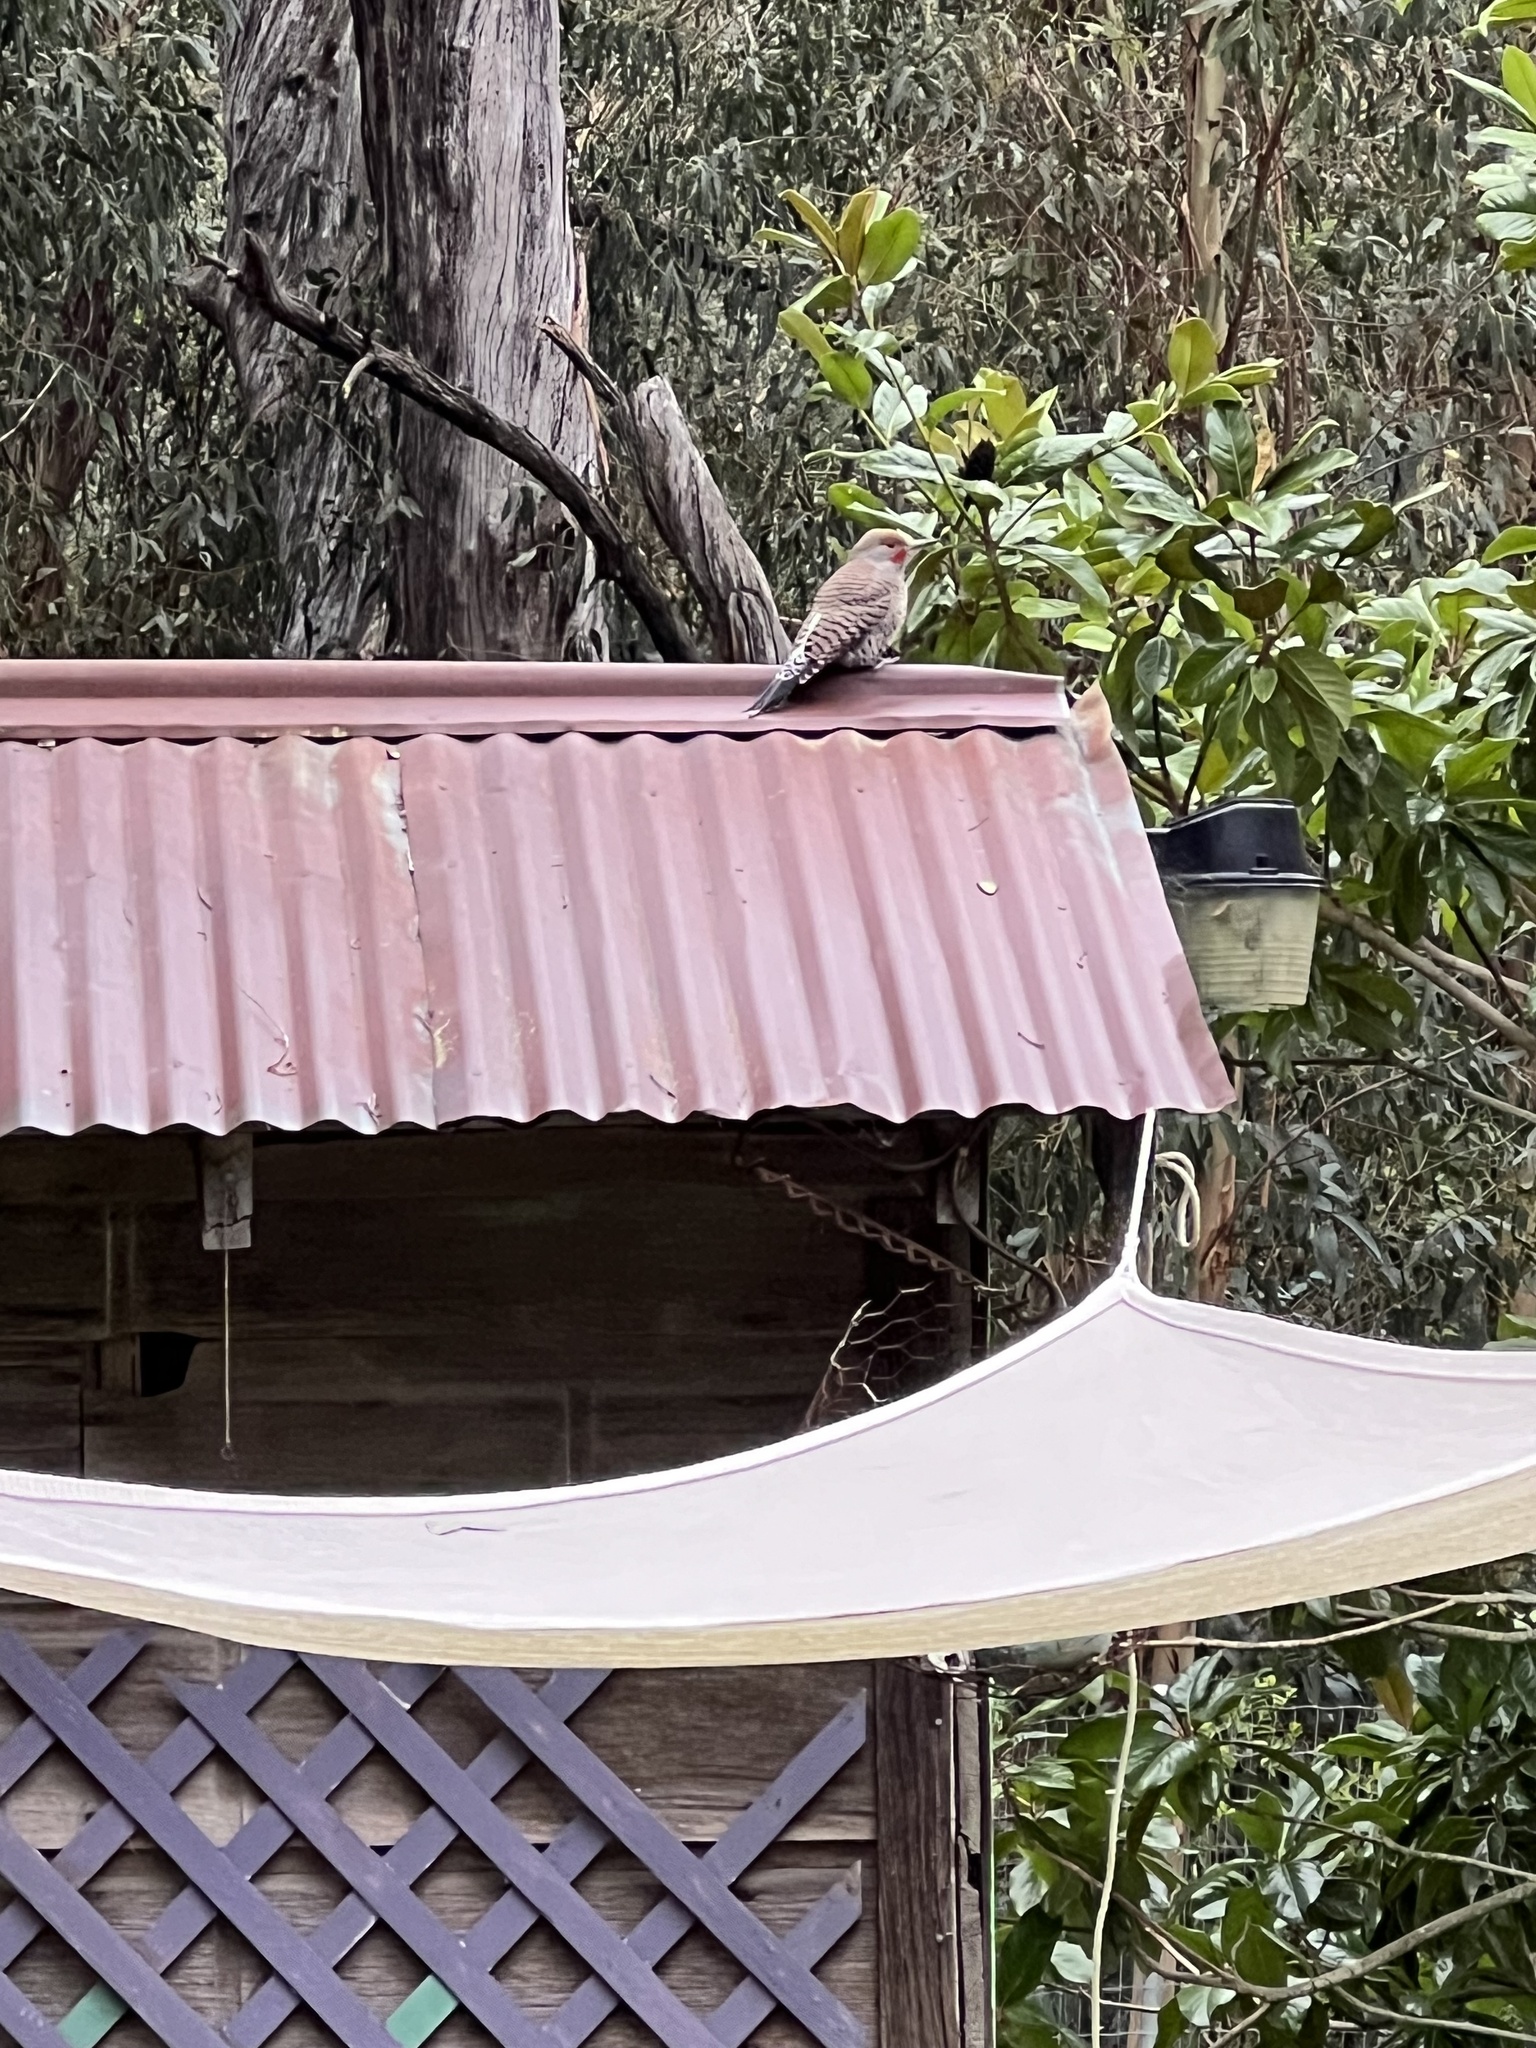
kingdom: Animalia
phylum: Chordata
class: Aves
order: Piciformes
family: Picidae
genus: Colaptes
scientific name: Colaptes auratus
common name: Northern flicker
